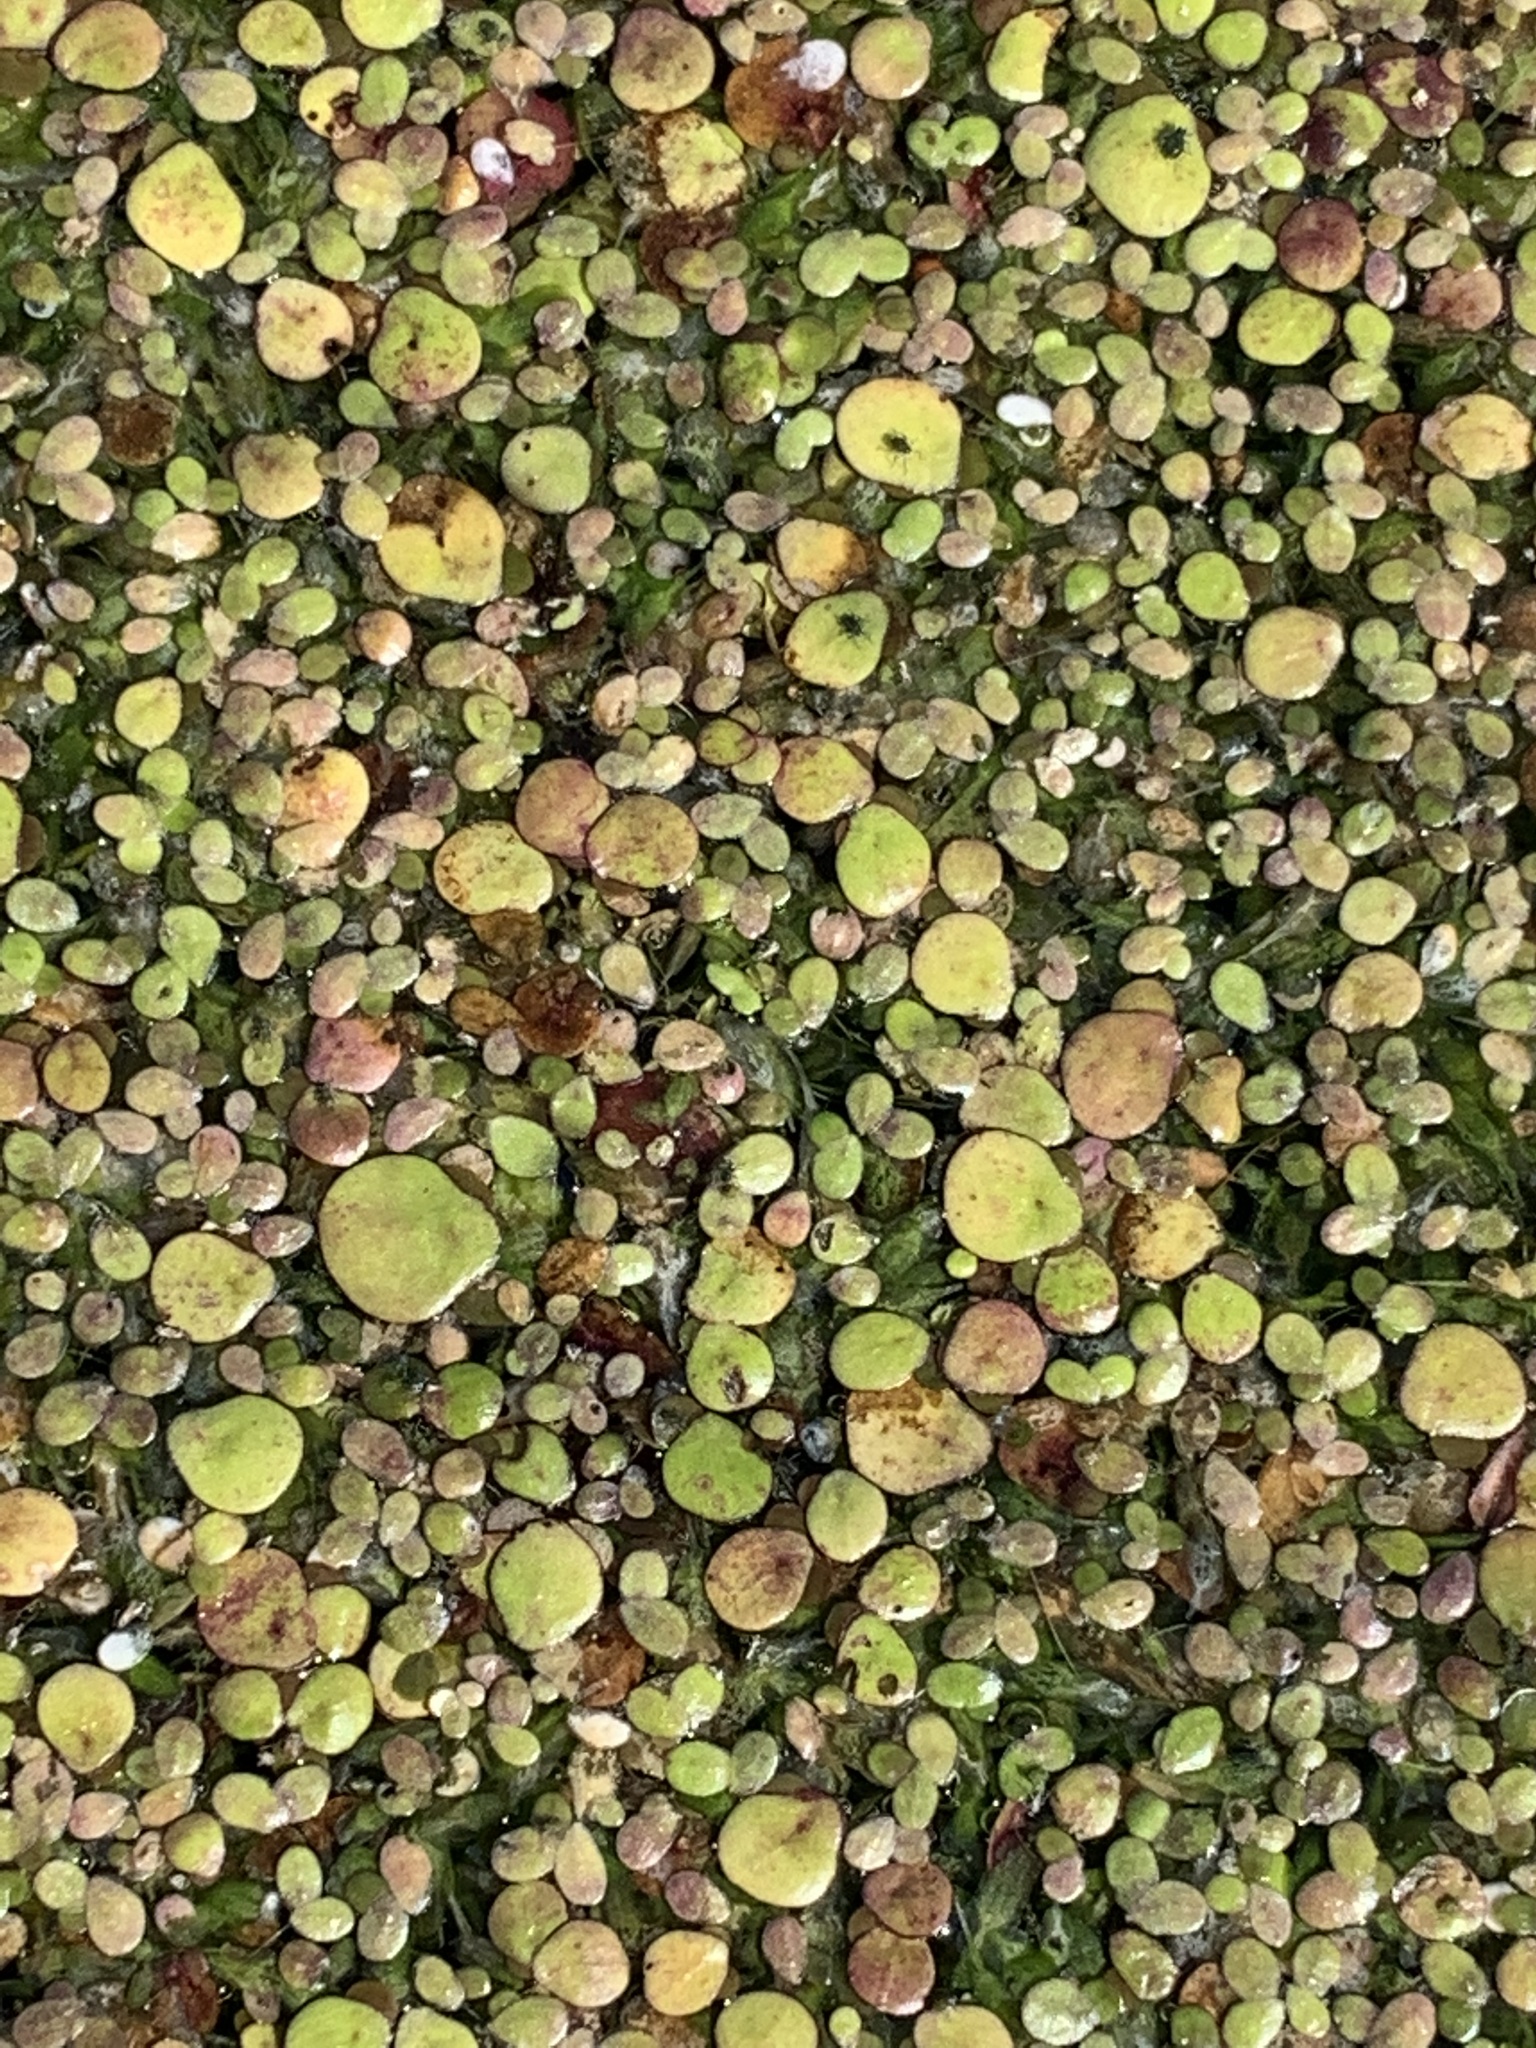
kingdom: Plantae
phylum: Tracheophyta
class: Liliopsida
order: Alismatales
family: Araceae
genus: Spirodela
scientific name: Spirodela polyrhiza
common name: Great duckweed
